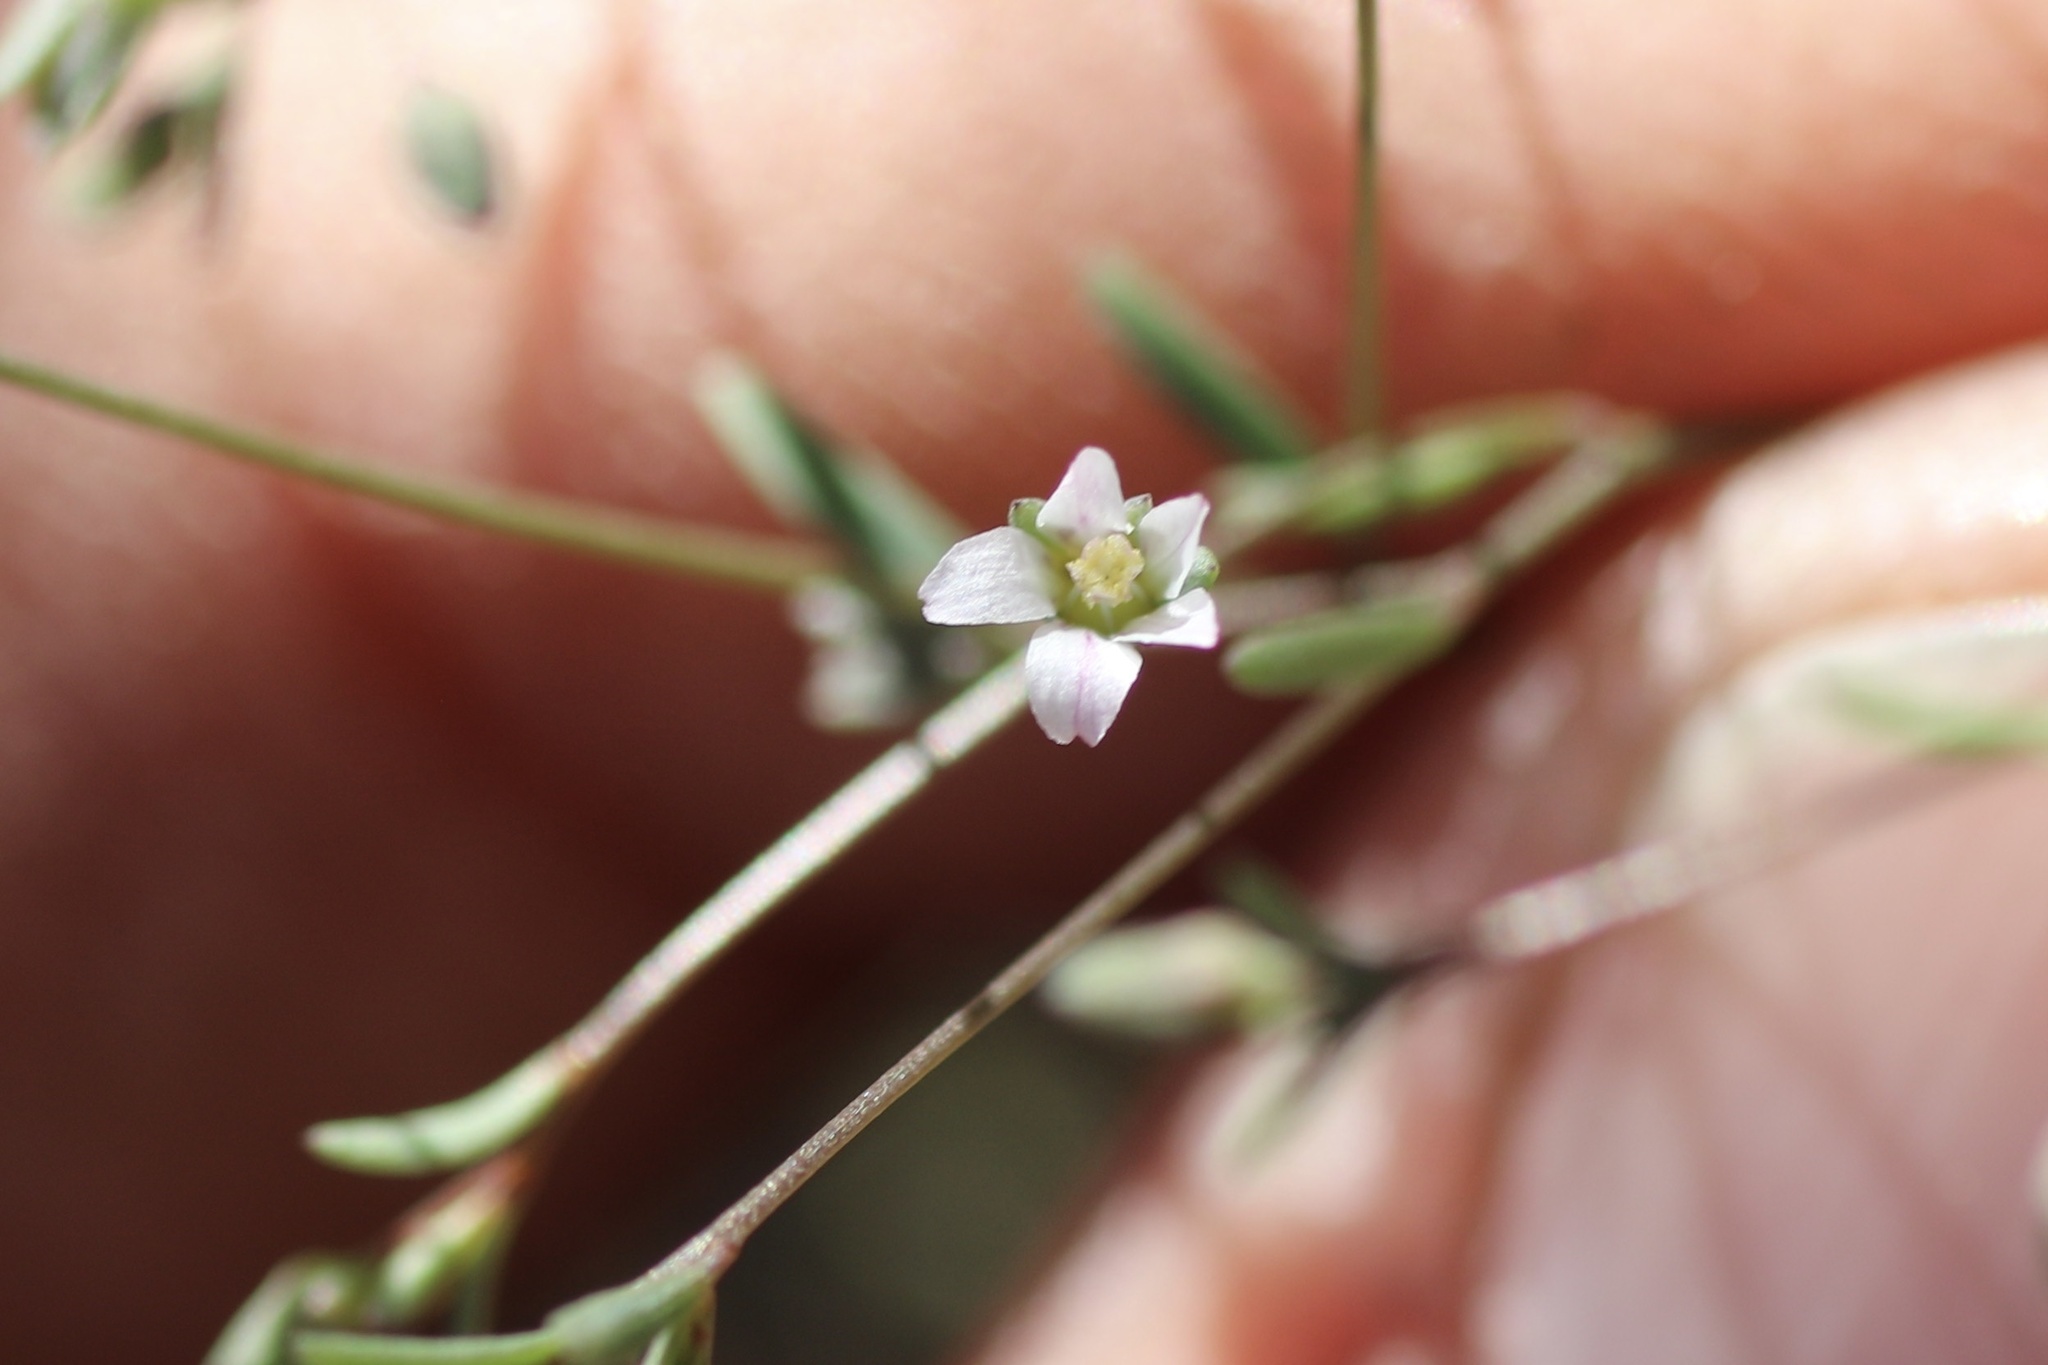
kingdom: Plantae
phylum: Tracheophyta
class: Magnoliopsida
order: Malpighiales
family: Linaceae
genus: Hesperolinon
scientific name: Hesperolinon micranthum
